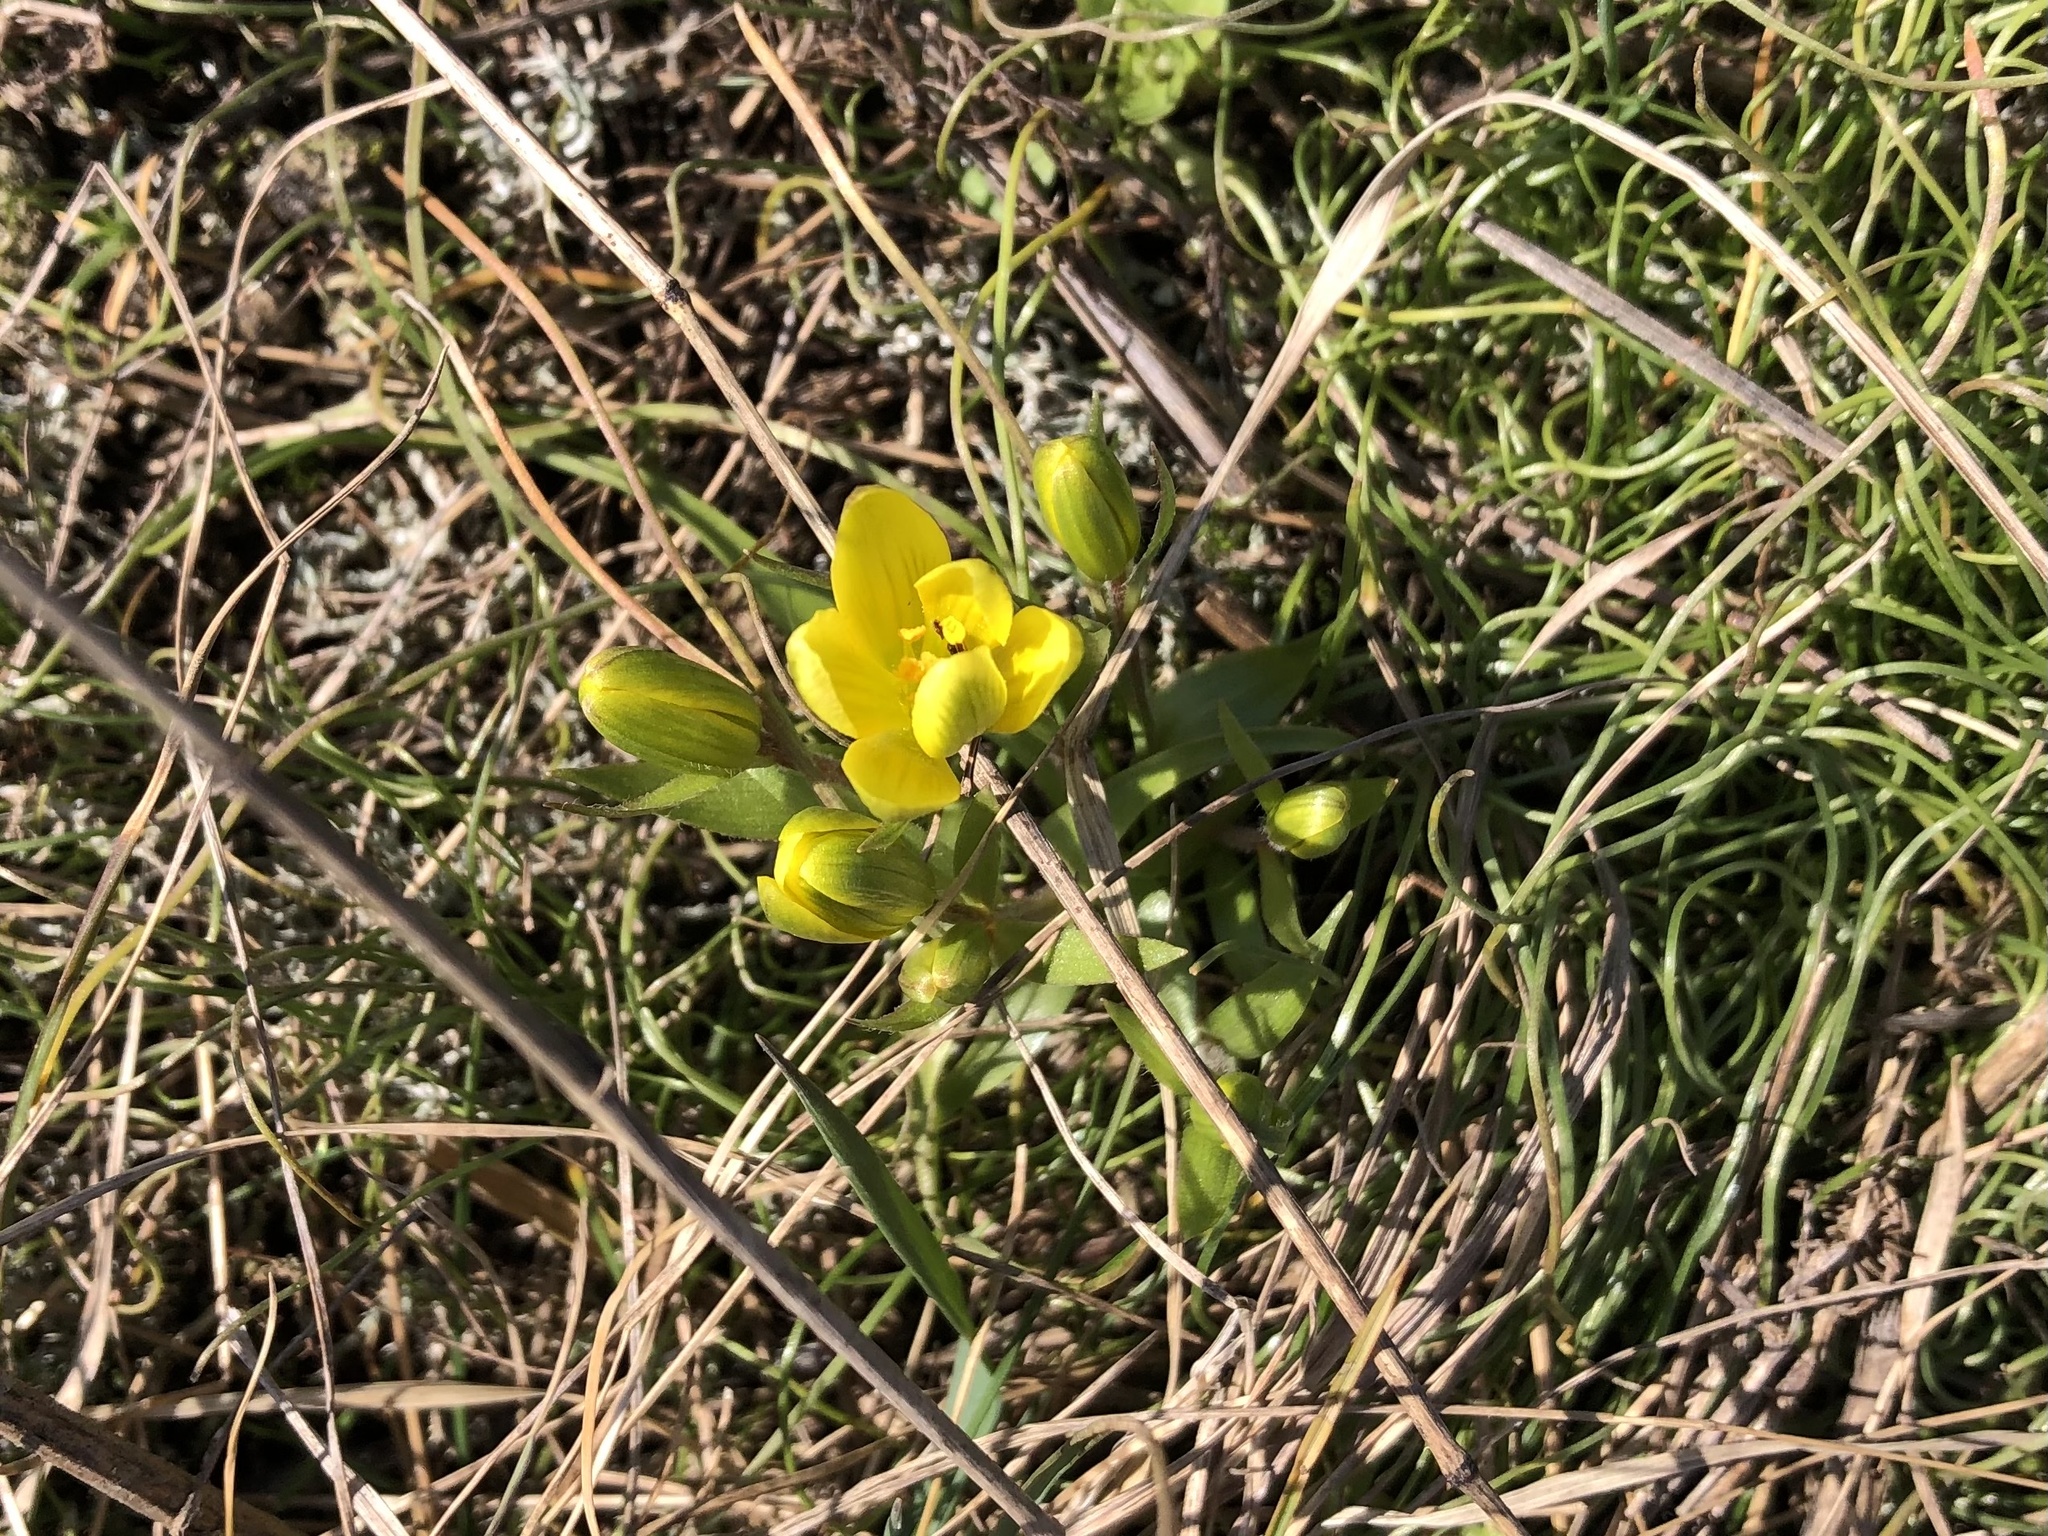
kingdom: Plantae
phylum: Tracheophyta
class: Liliopsida
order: Liliales
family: Liliaceae
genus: Gagea
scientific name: Gagea bohemica
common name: Early star-of-bethlehem
